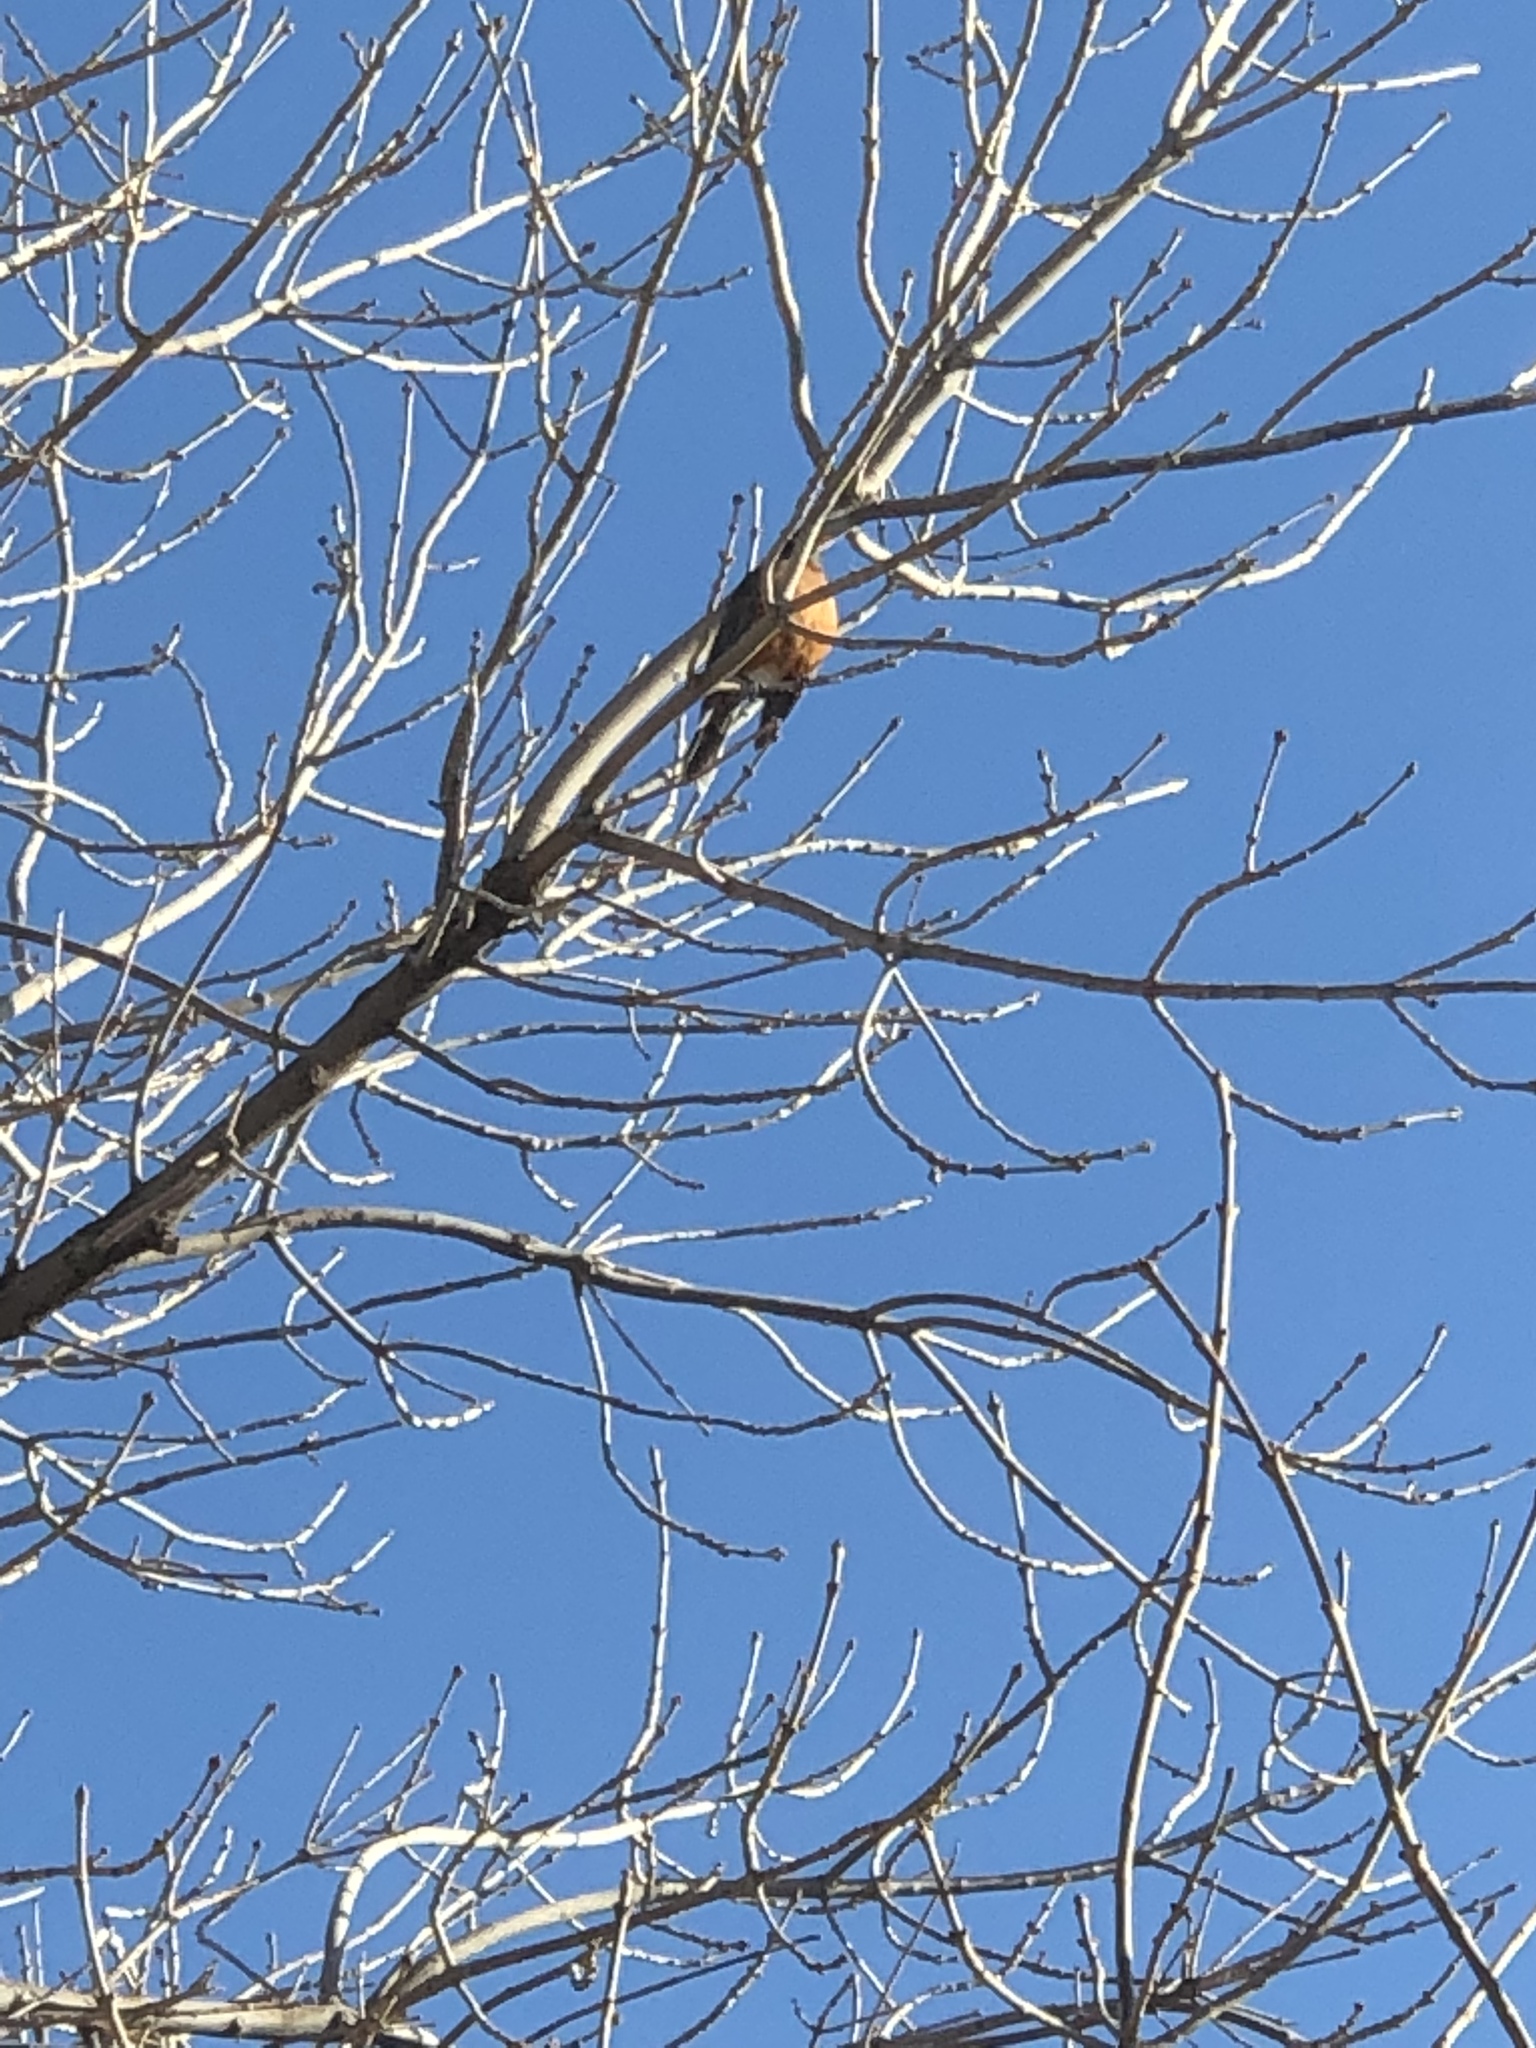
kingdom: Animalia
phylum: Chordata
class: Aves
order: Passeriformes
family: Turdidae
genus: Turdus
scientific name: Turdus migratorius
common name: American robin
